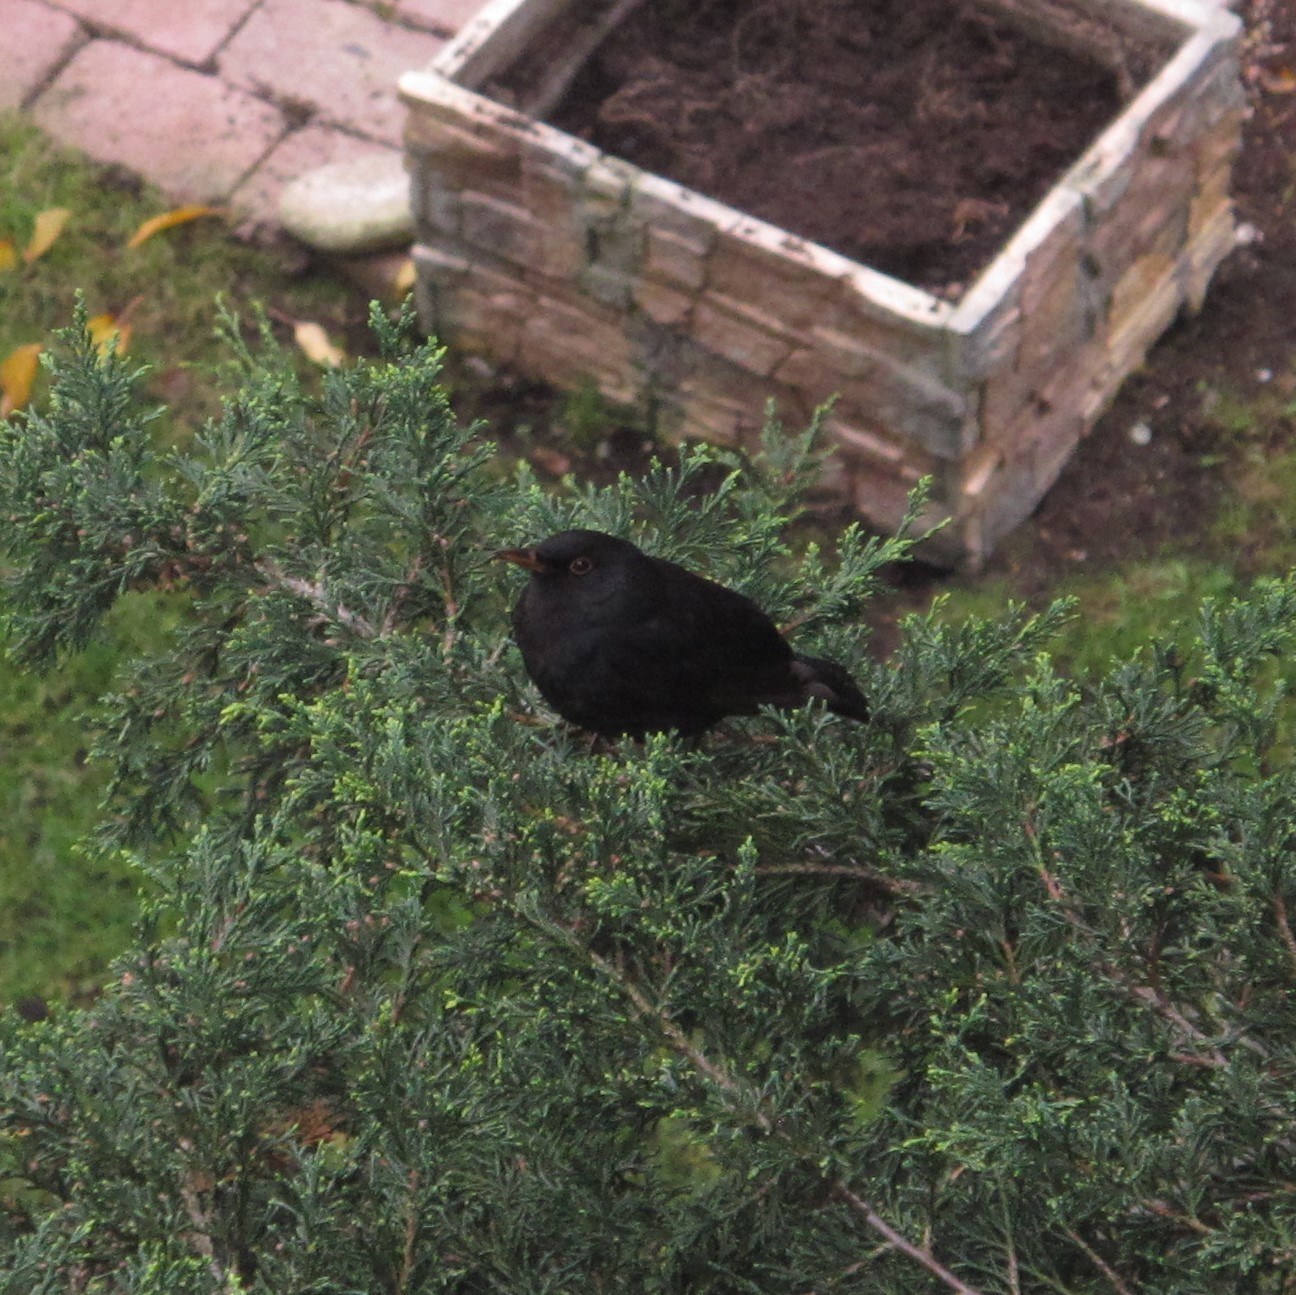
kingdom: Animalia
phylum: Chordata
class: Aves
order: Passeriformes
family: Turdidae
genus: Turdus
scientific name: Turdus merula
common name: Common blackbird
